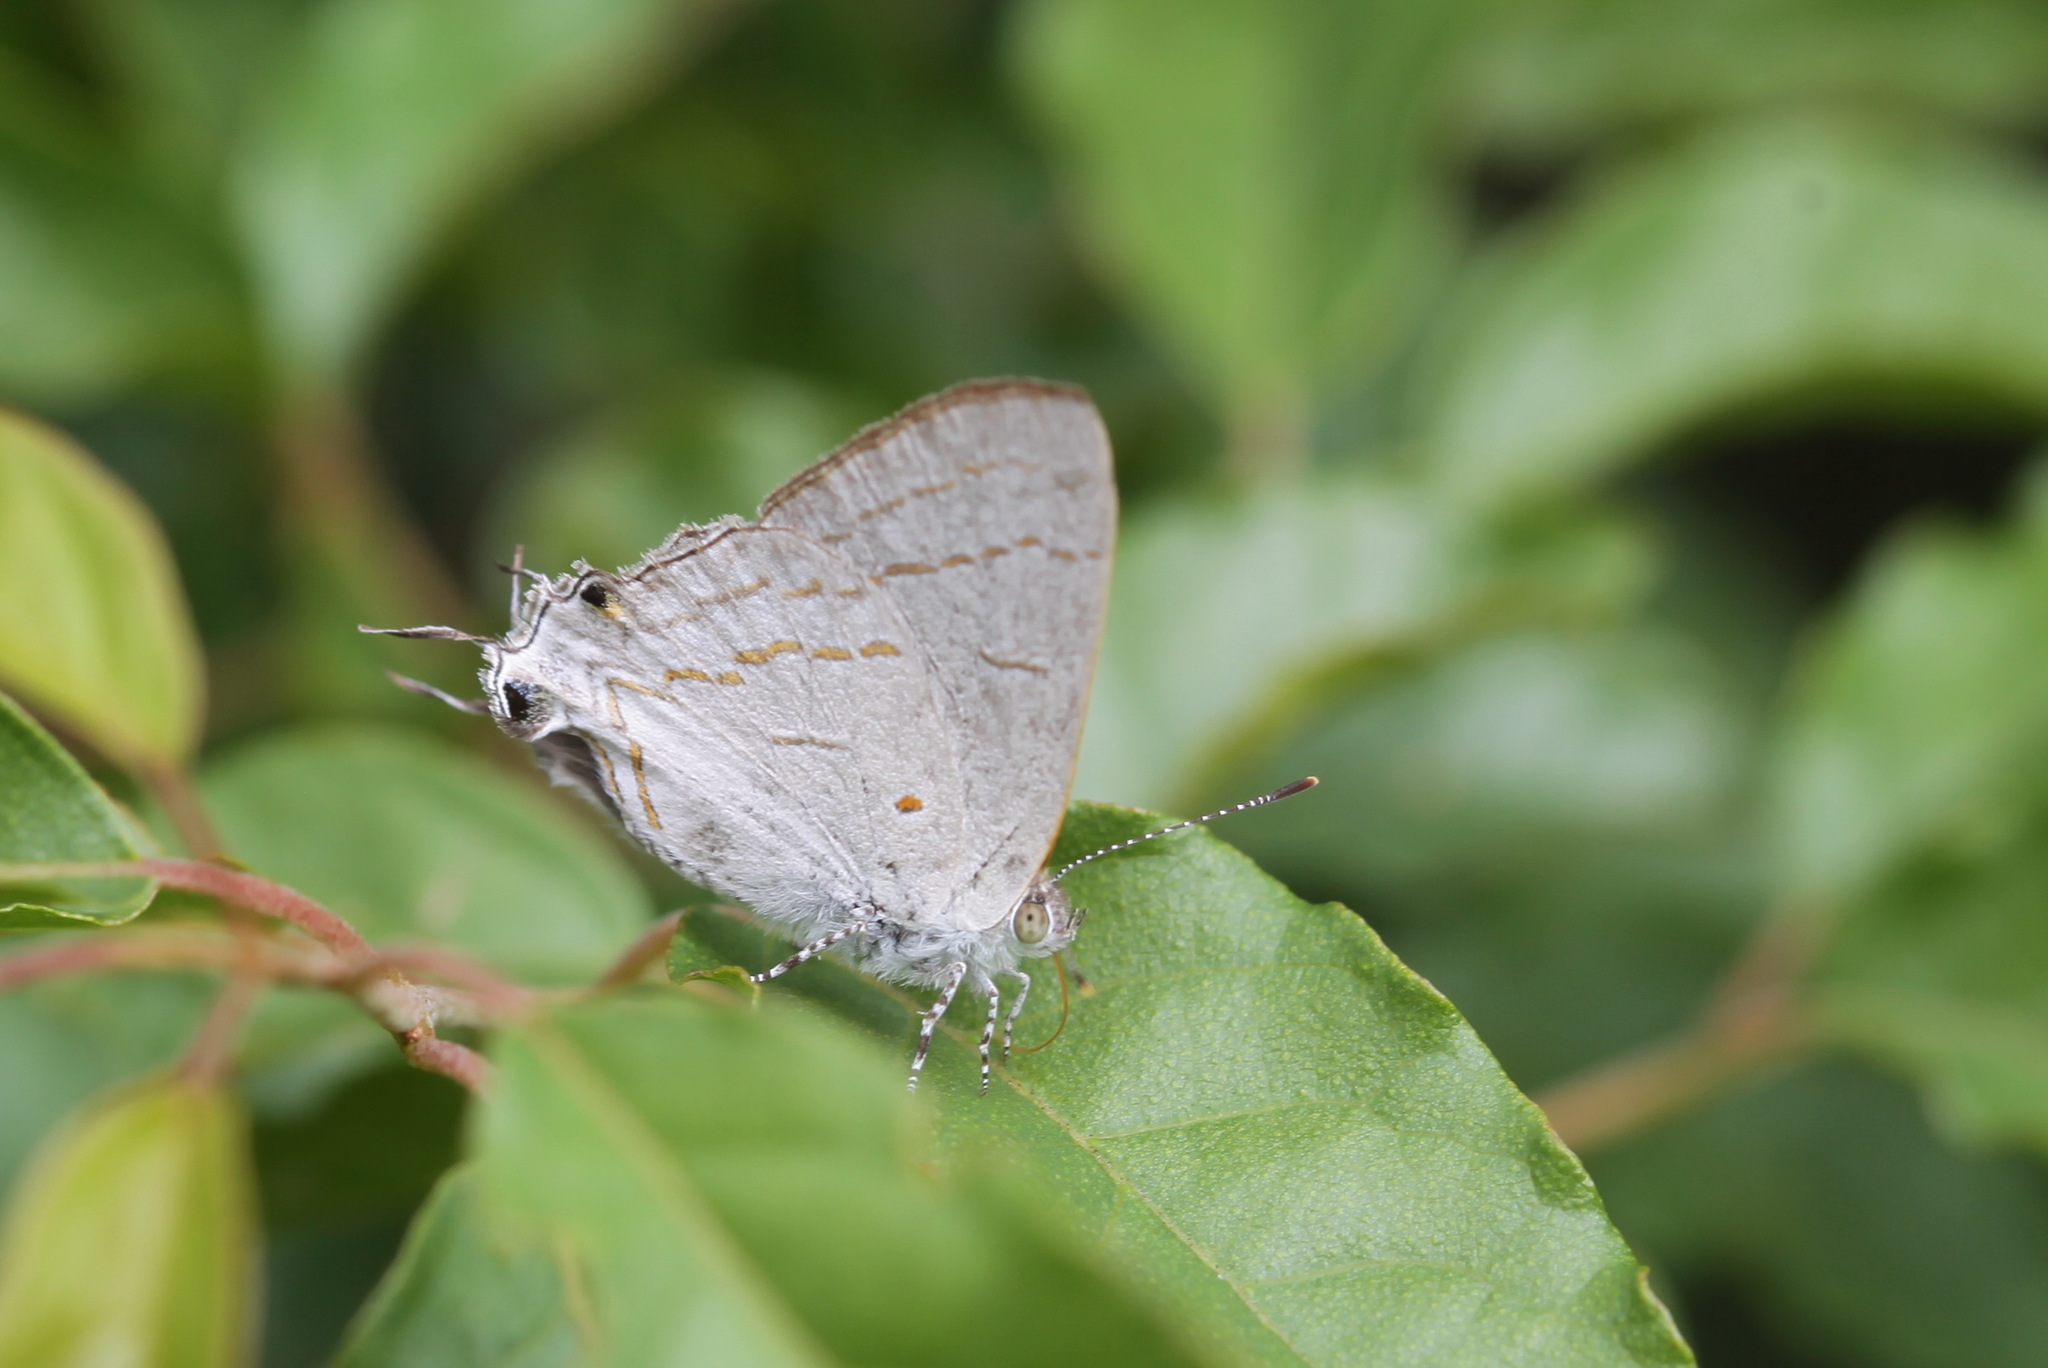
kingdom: Animalia
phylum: Arthropoda
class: Insecta
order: Lepidoptera
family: Lycaenidae
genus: Hypolycaena
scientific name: Hypolycaena philippus
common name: Common hairstreak
